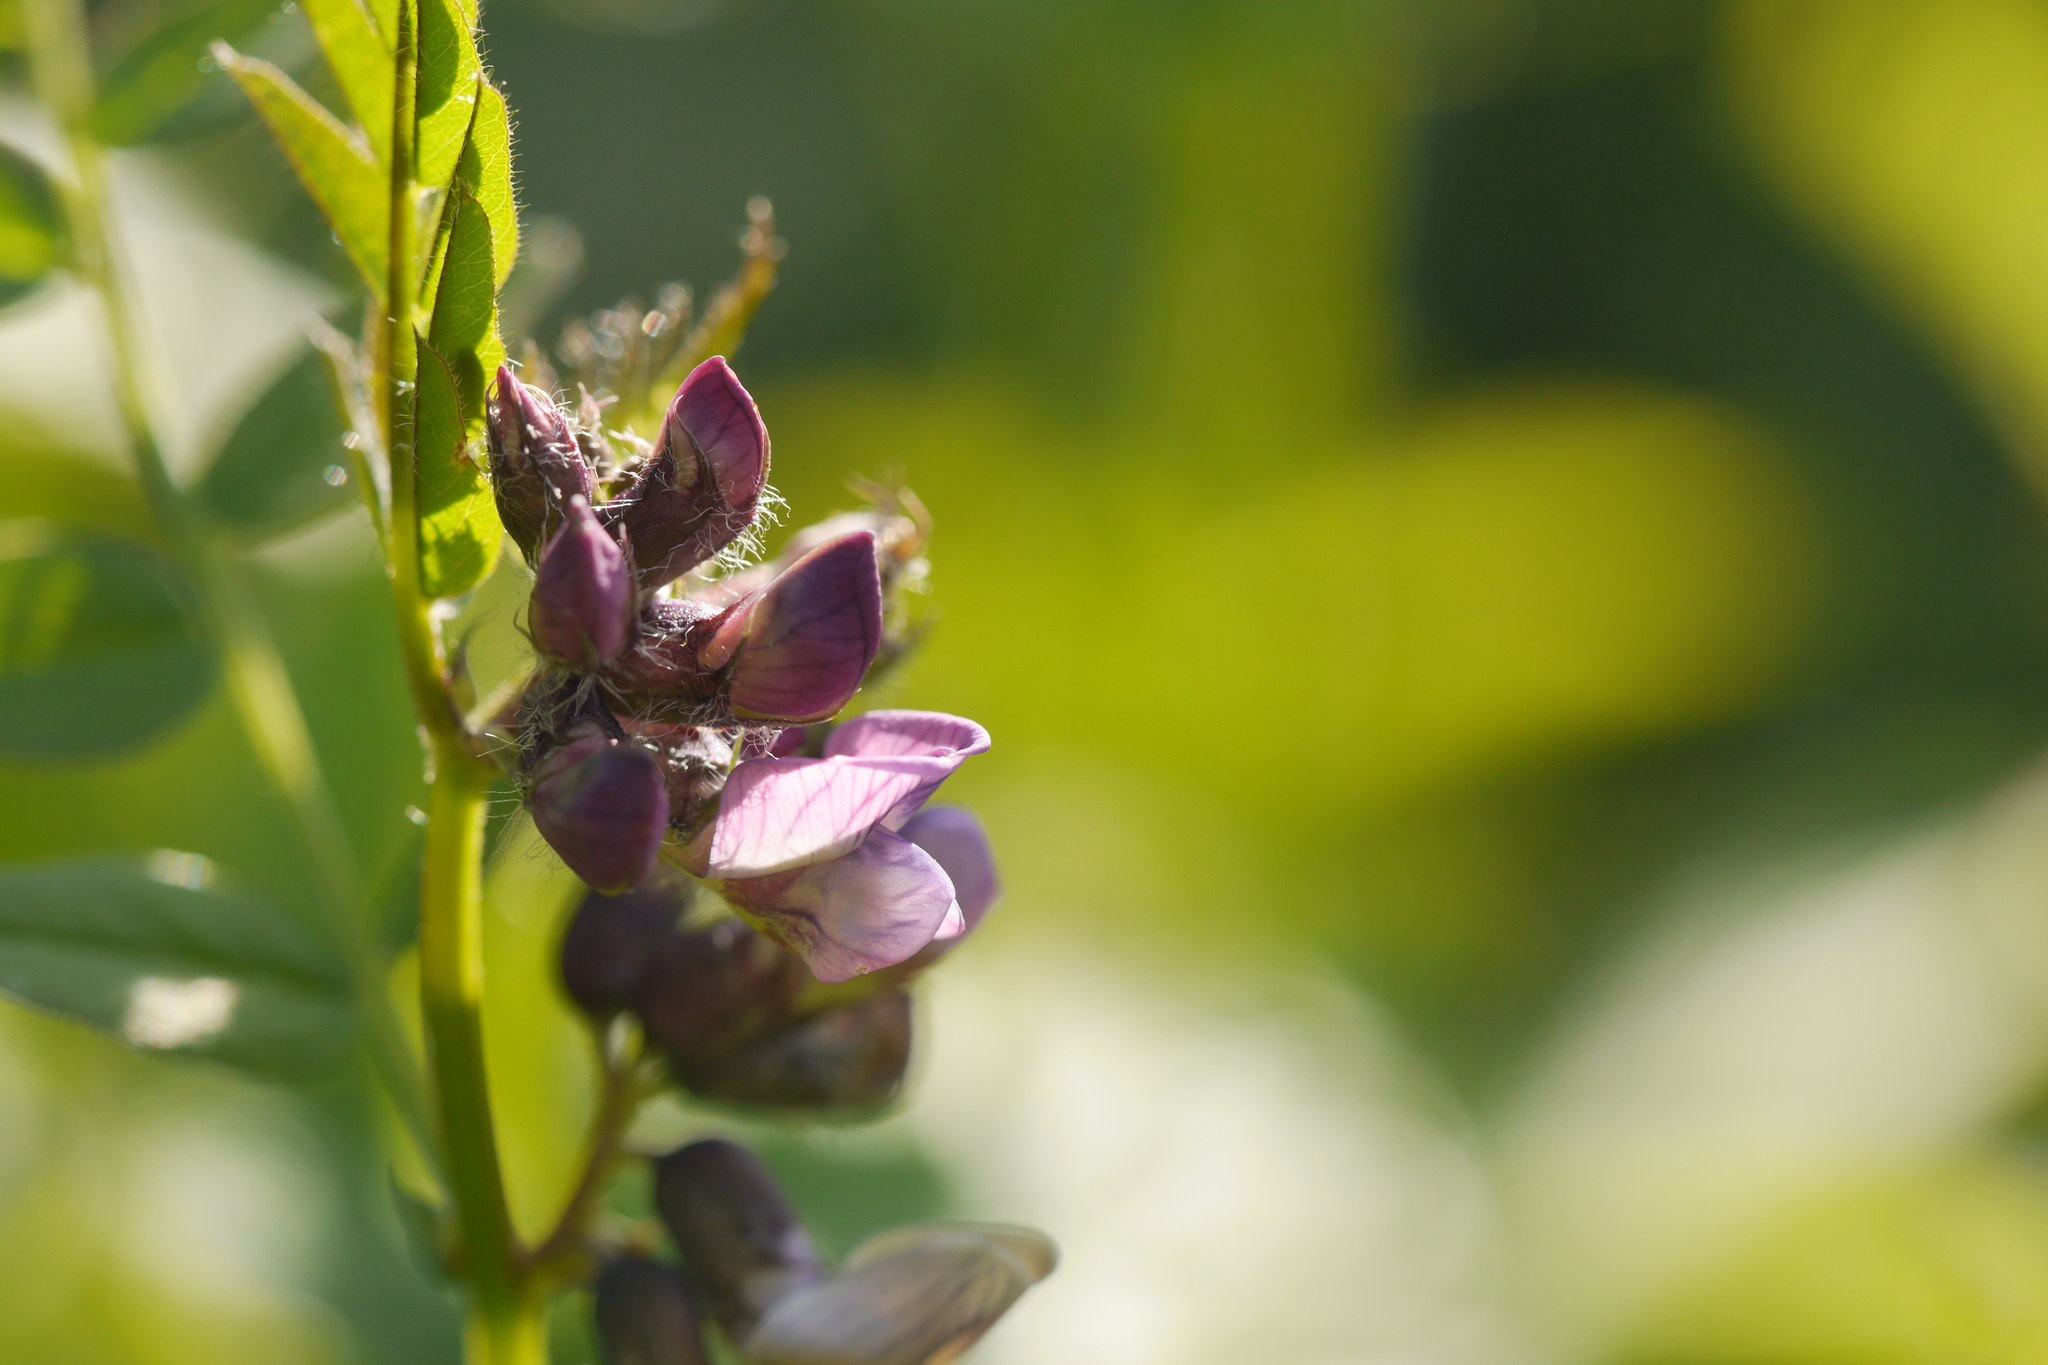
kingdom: Plantae
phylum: Tracheophyta
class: Magnoliopsida
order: Fabales
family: Fabaceae
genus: Vicia
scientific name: Vicia sepium
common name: Bush vetch
